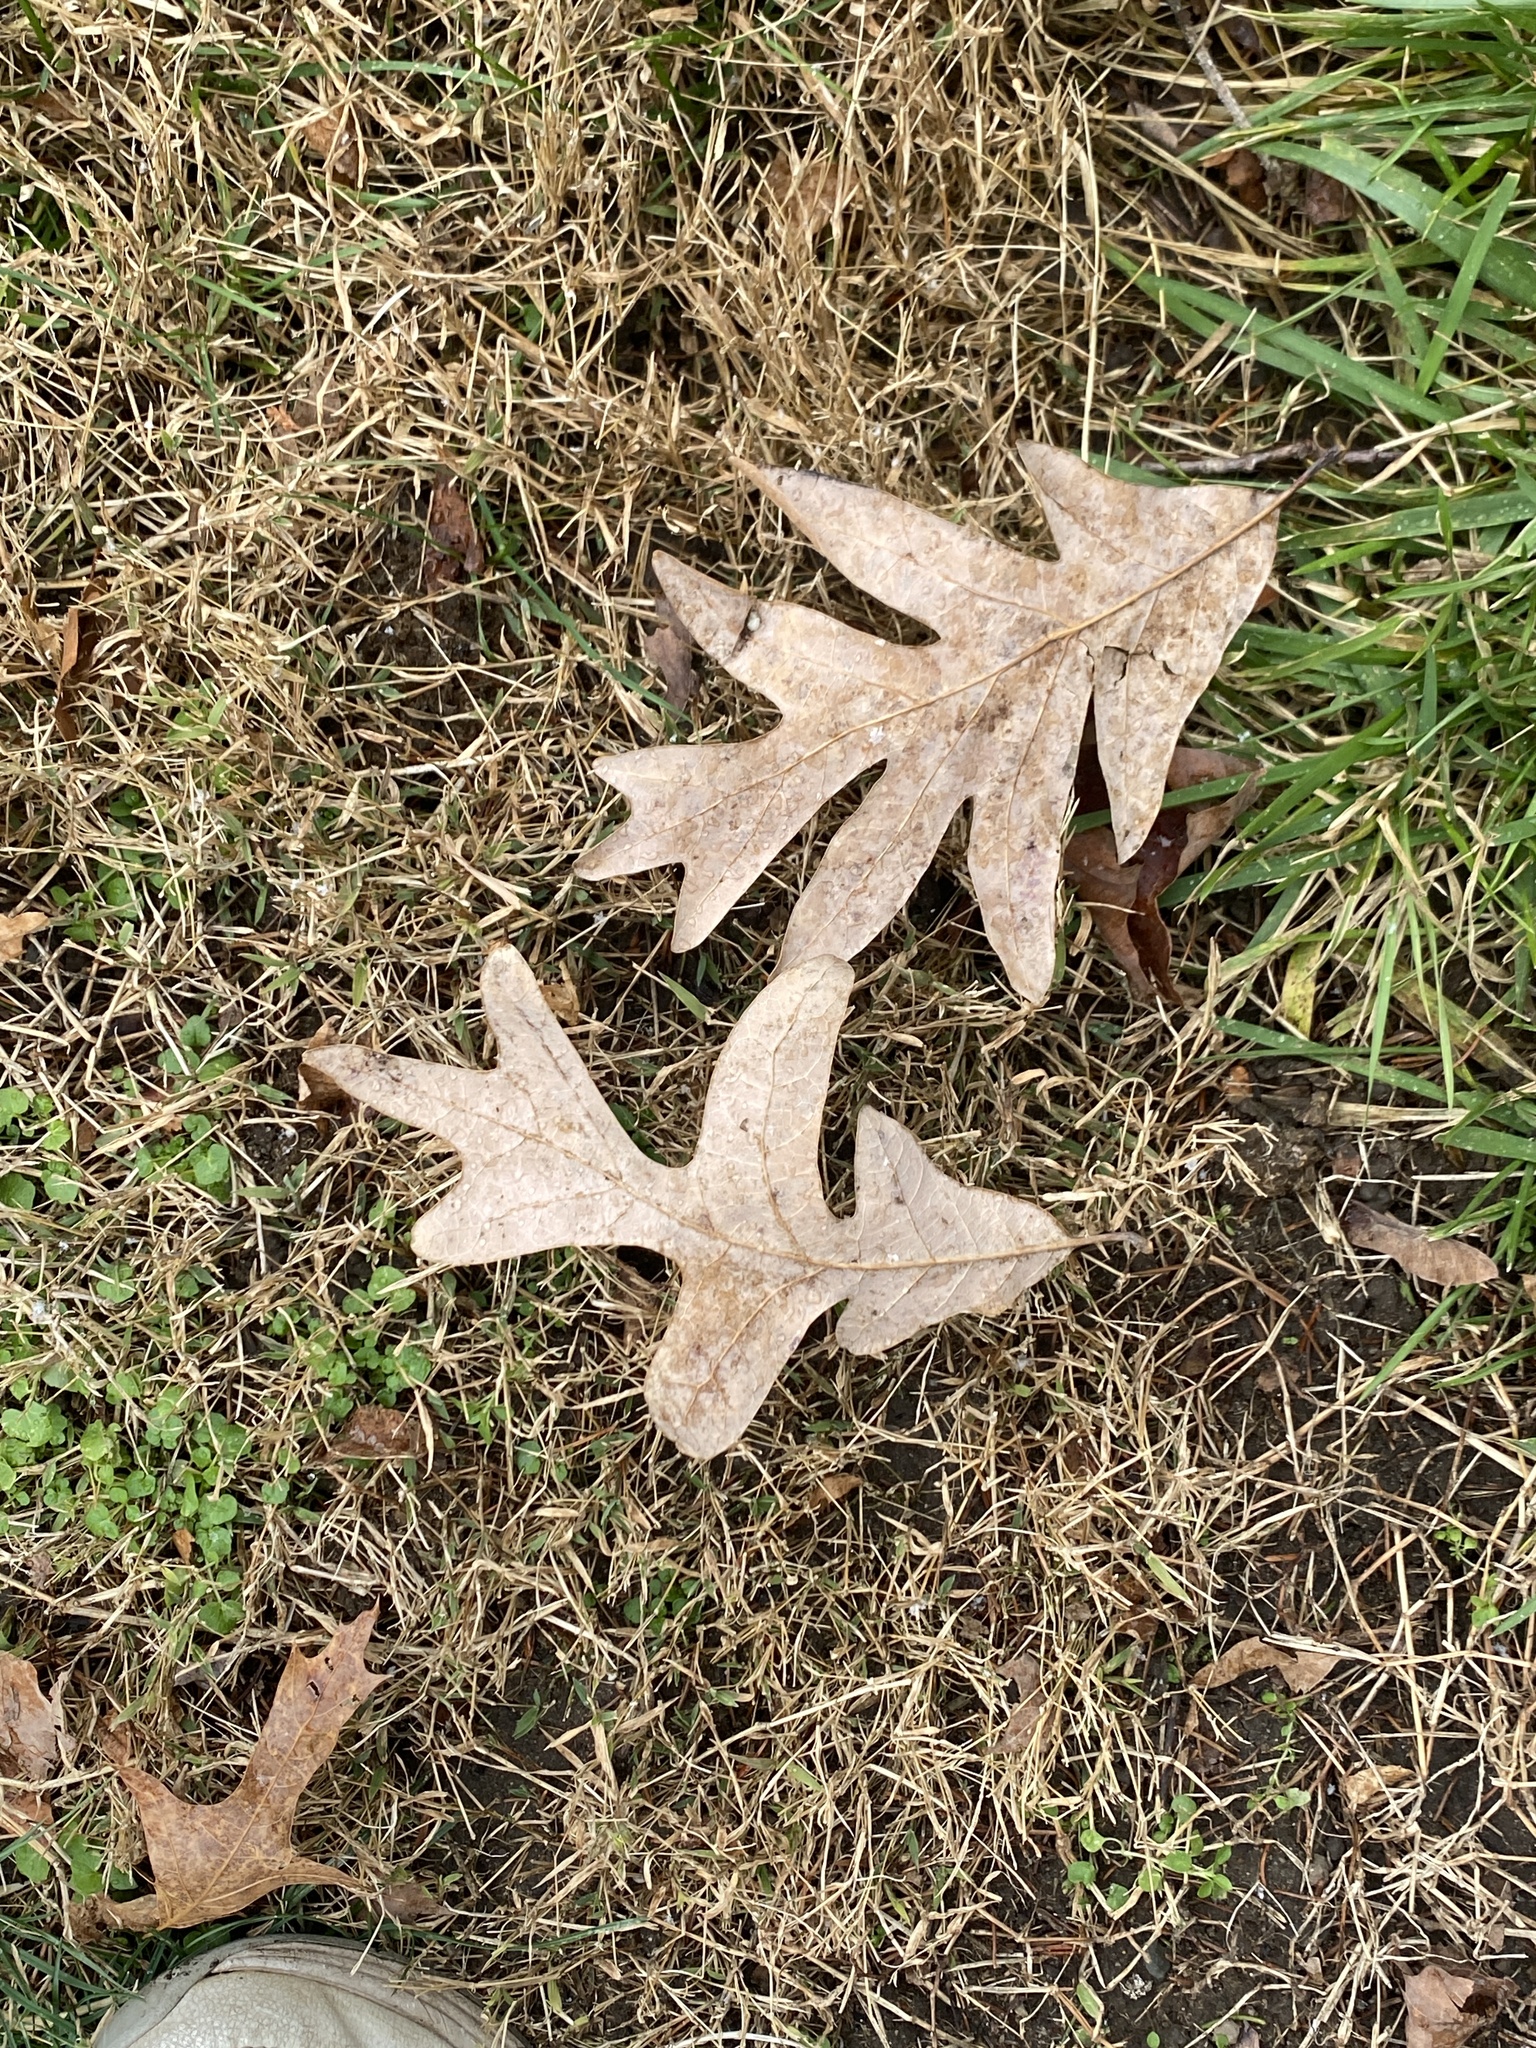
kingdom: Plantae
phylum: Tracheophyta
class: Magnoliopsida
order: Fagales
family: Fagaceae
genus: Quercus
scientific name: Quercus alba
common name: White oak
